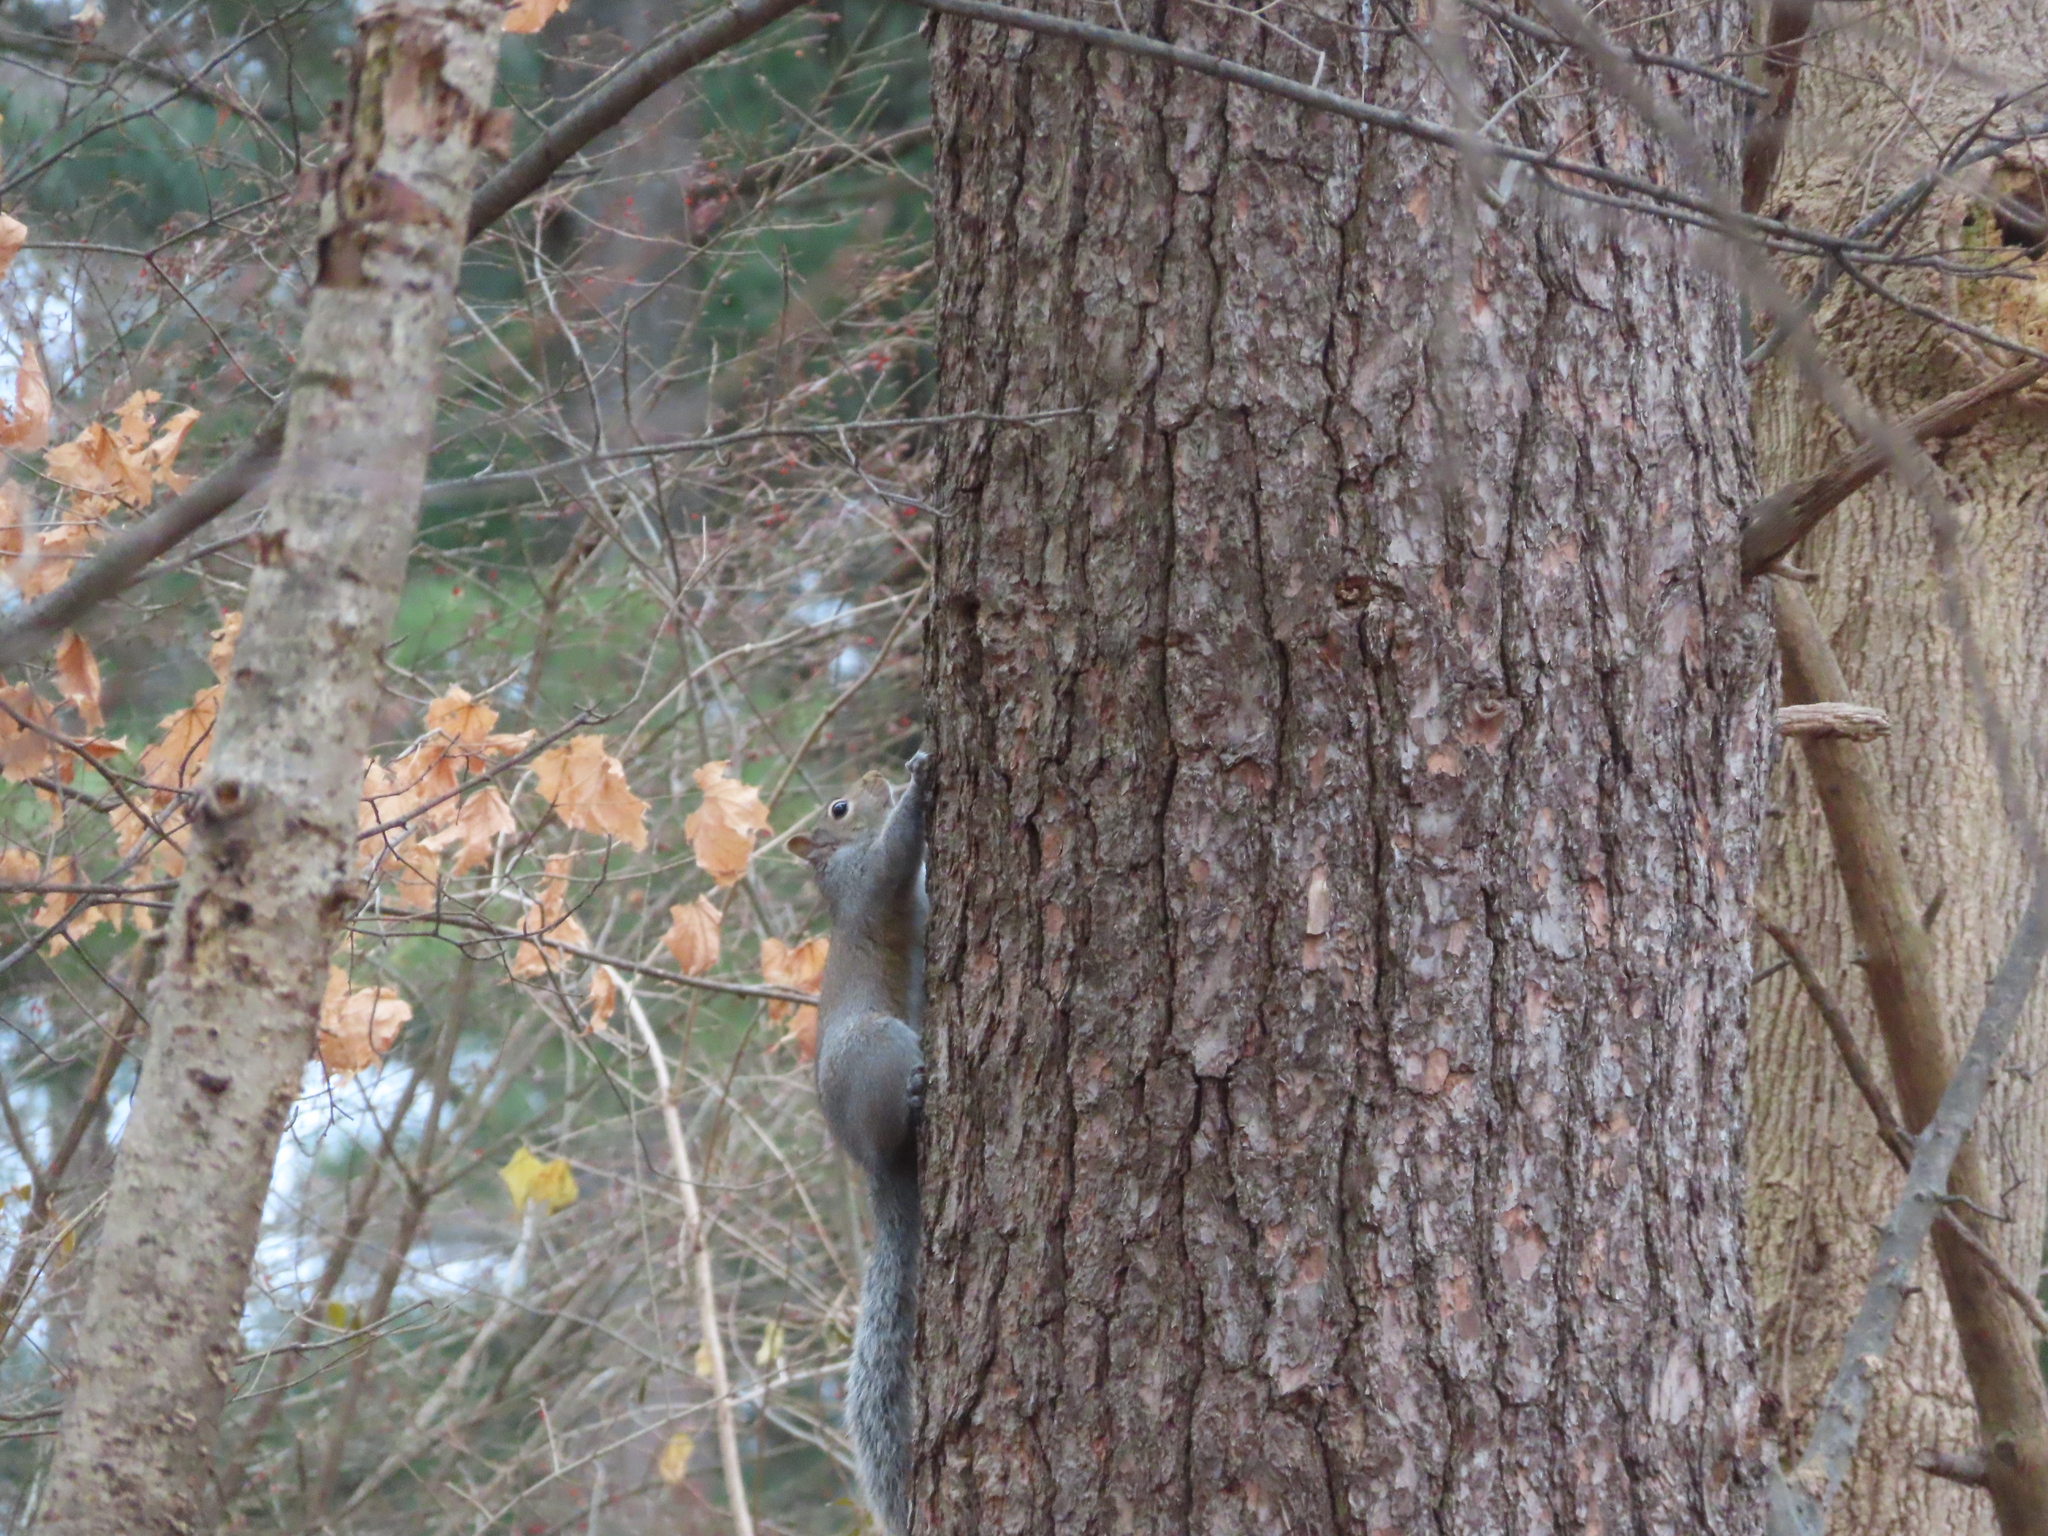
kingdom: Animalia
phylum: Chordata
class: Mammalia
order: Rodentia
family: Sciuridae
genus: Sciurus
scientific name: Sciurus carolinensis
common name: Eastern gray squirrel
